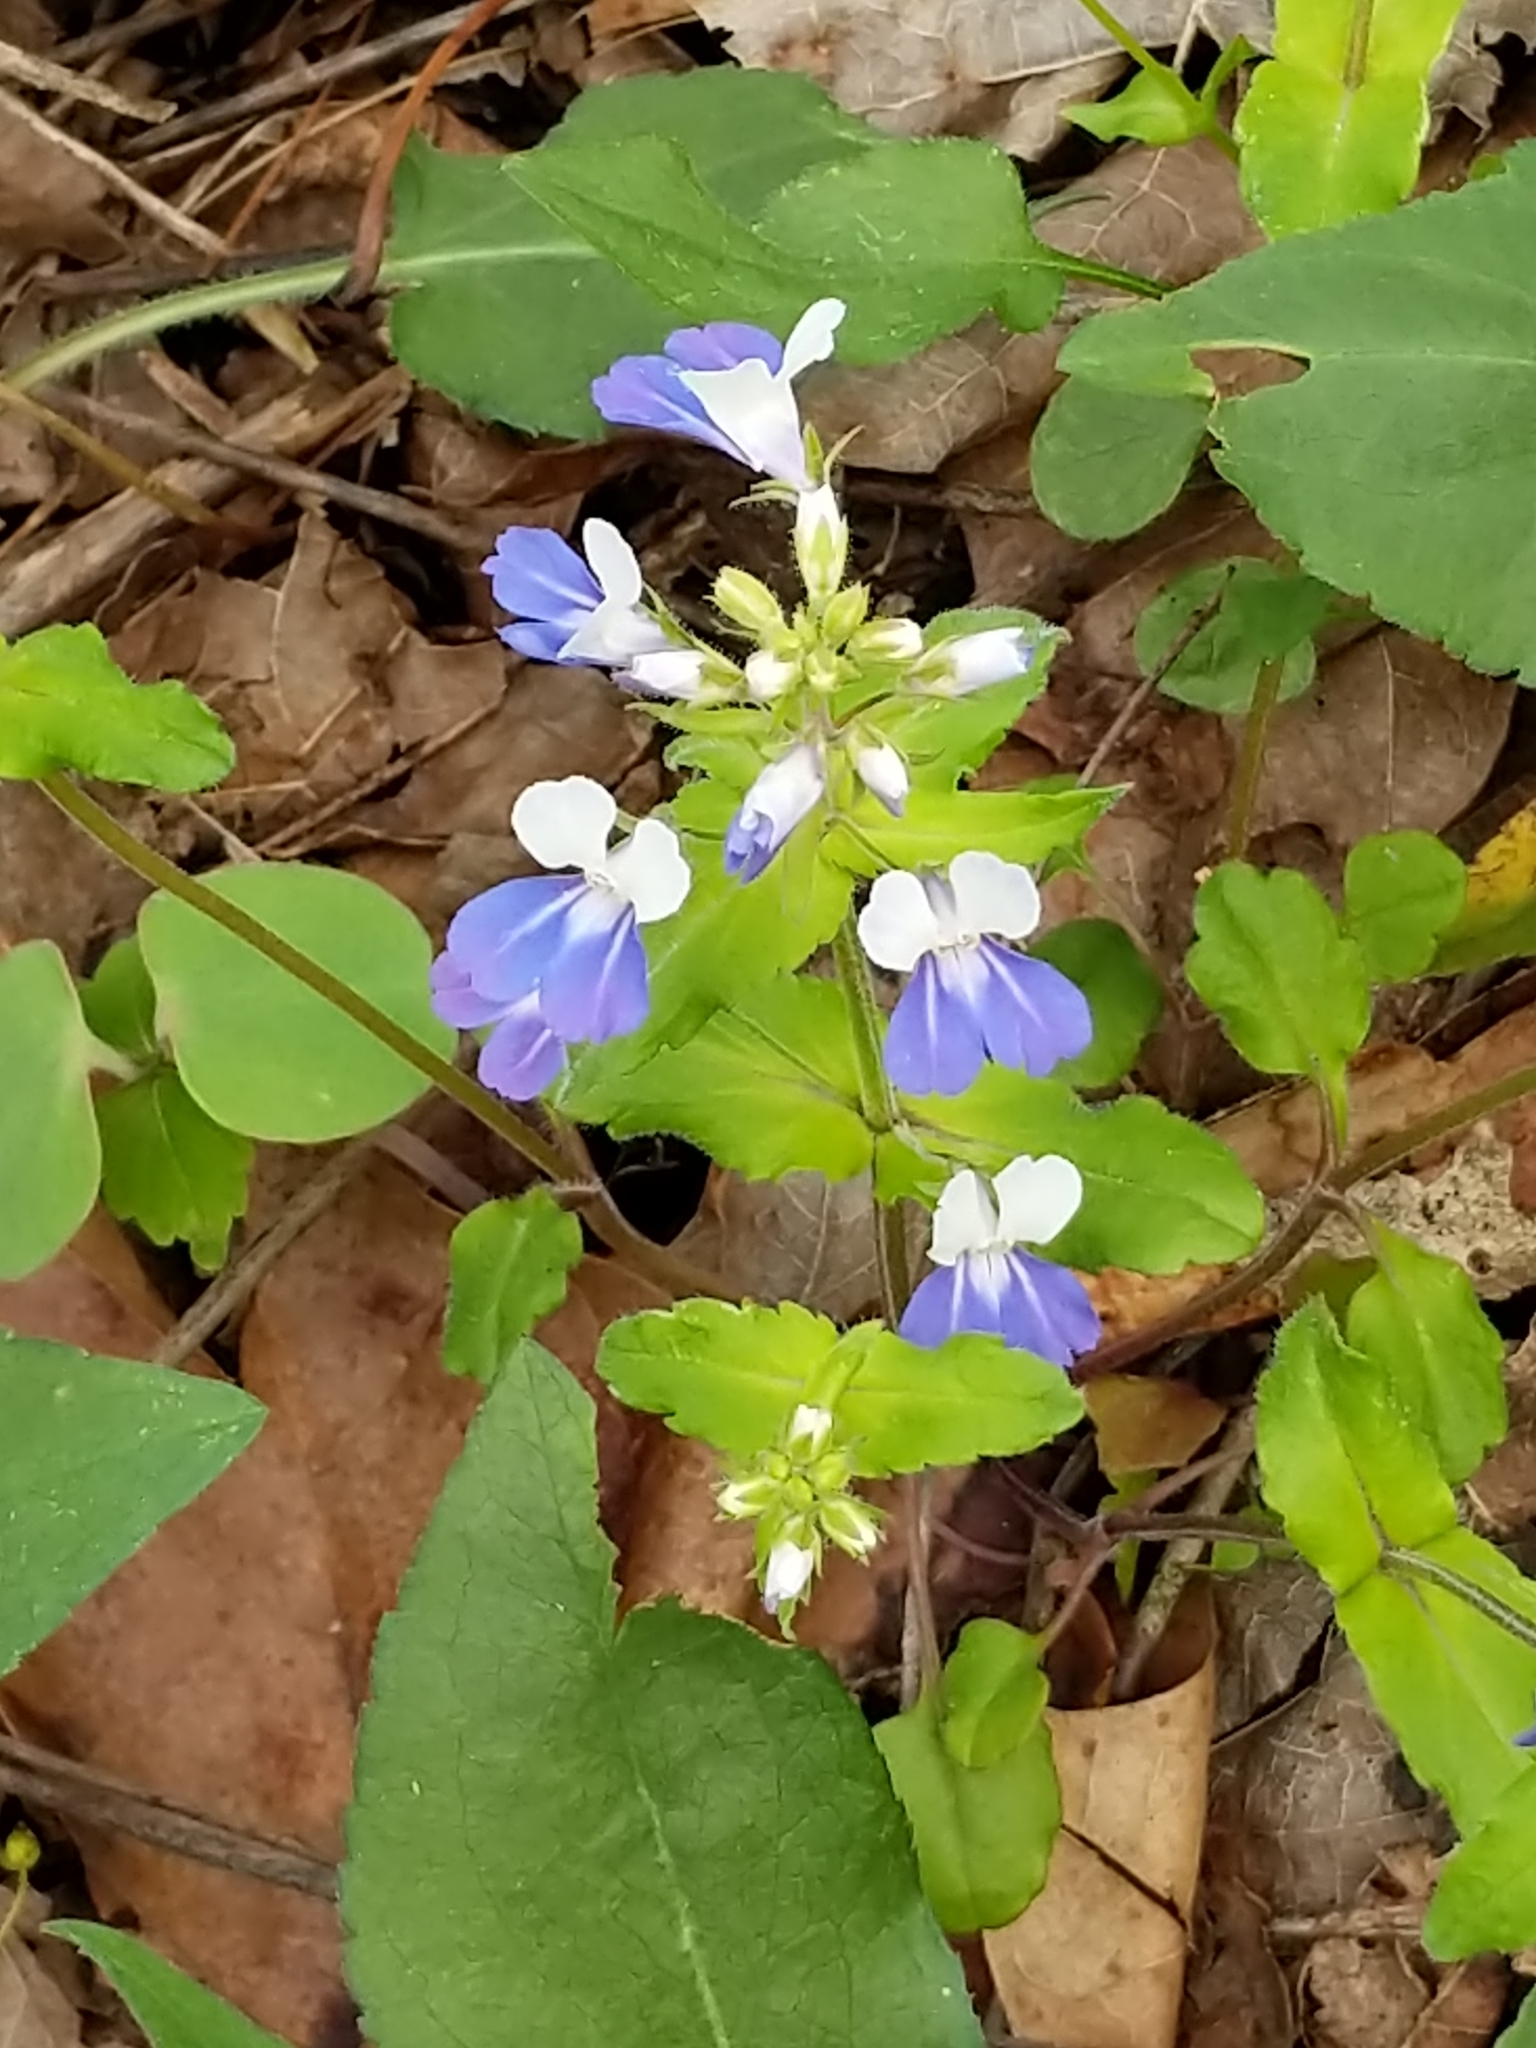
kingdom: Plantae
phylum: Tracheophyta
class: Magnoliopsida
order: Lamiales
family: Plantaginaceae
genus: Collinsia
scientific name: Collinsia verna
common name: Broad-leaved collinsia
